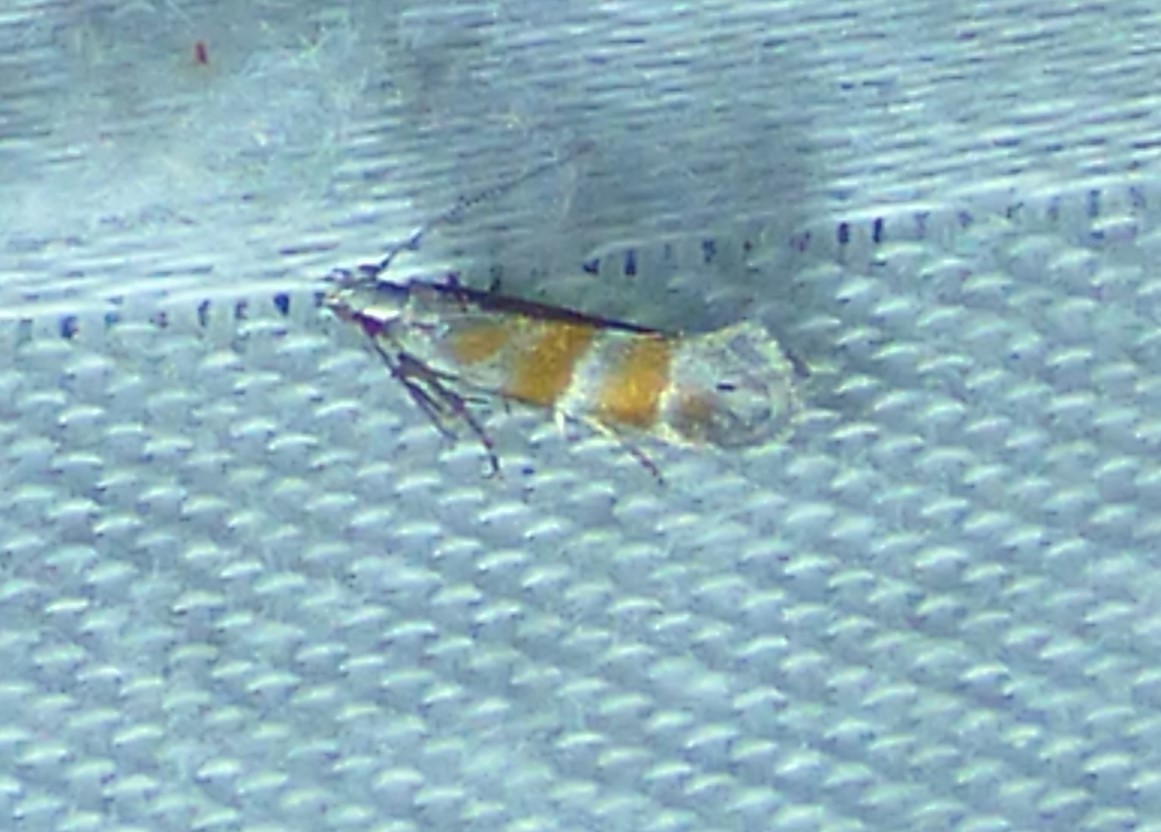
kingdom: Animalia
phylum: Arthropoda
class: Insecta
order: Lepidoptera
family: Gelechiidae
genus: Battaristis
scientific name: Battaristis vittella
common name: Orange stripe-backed moth
